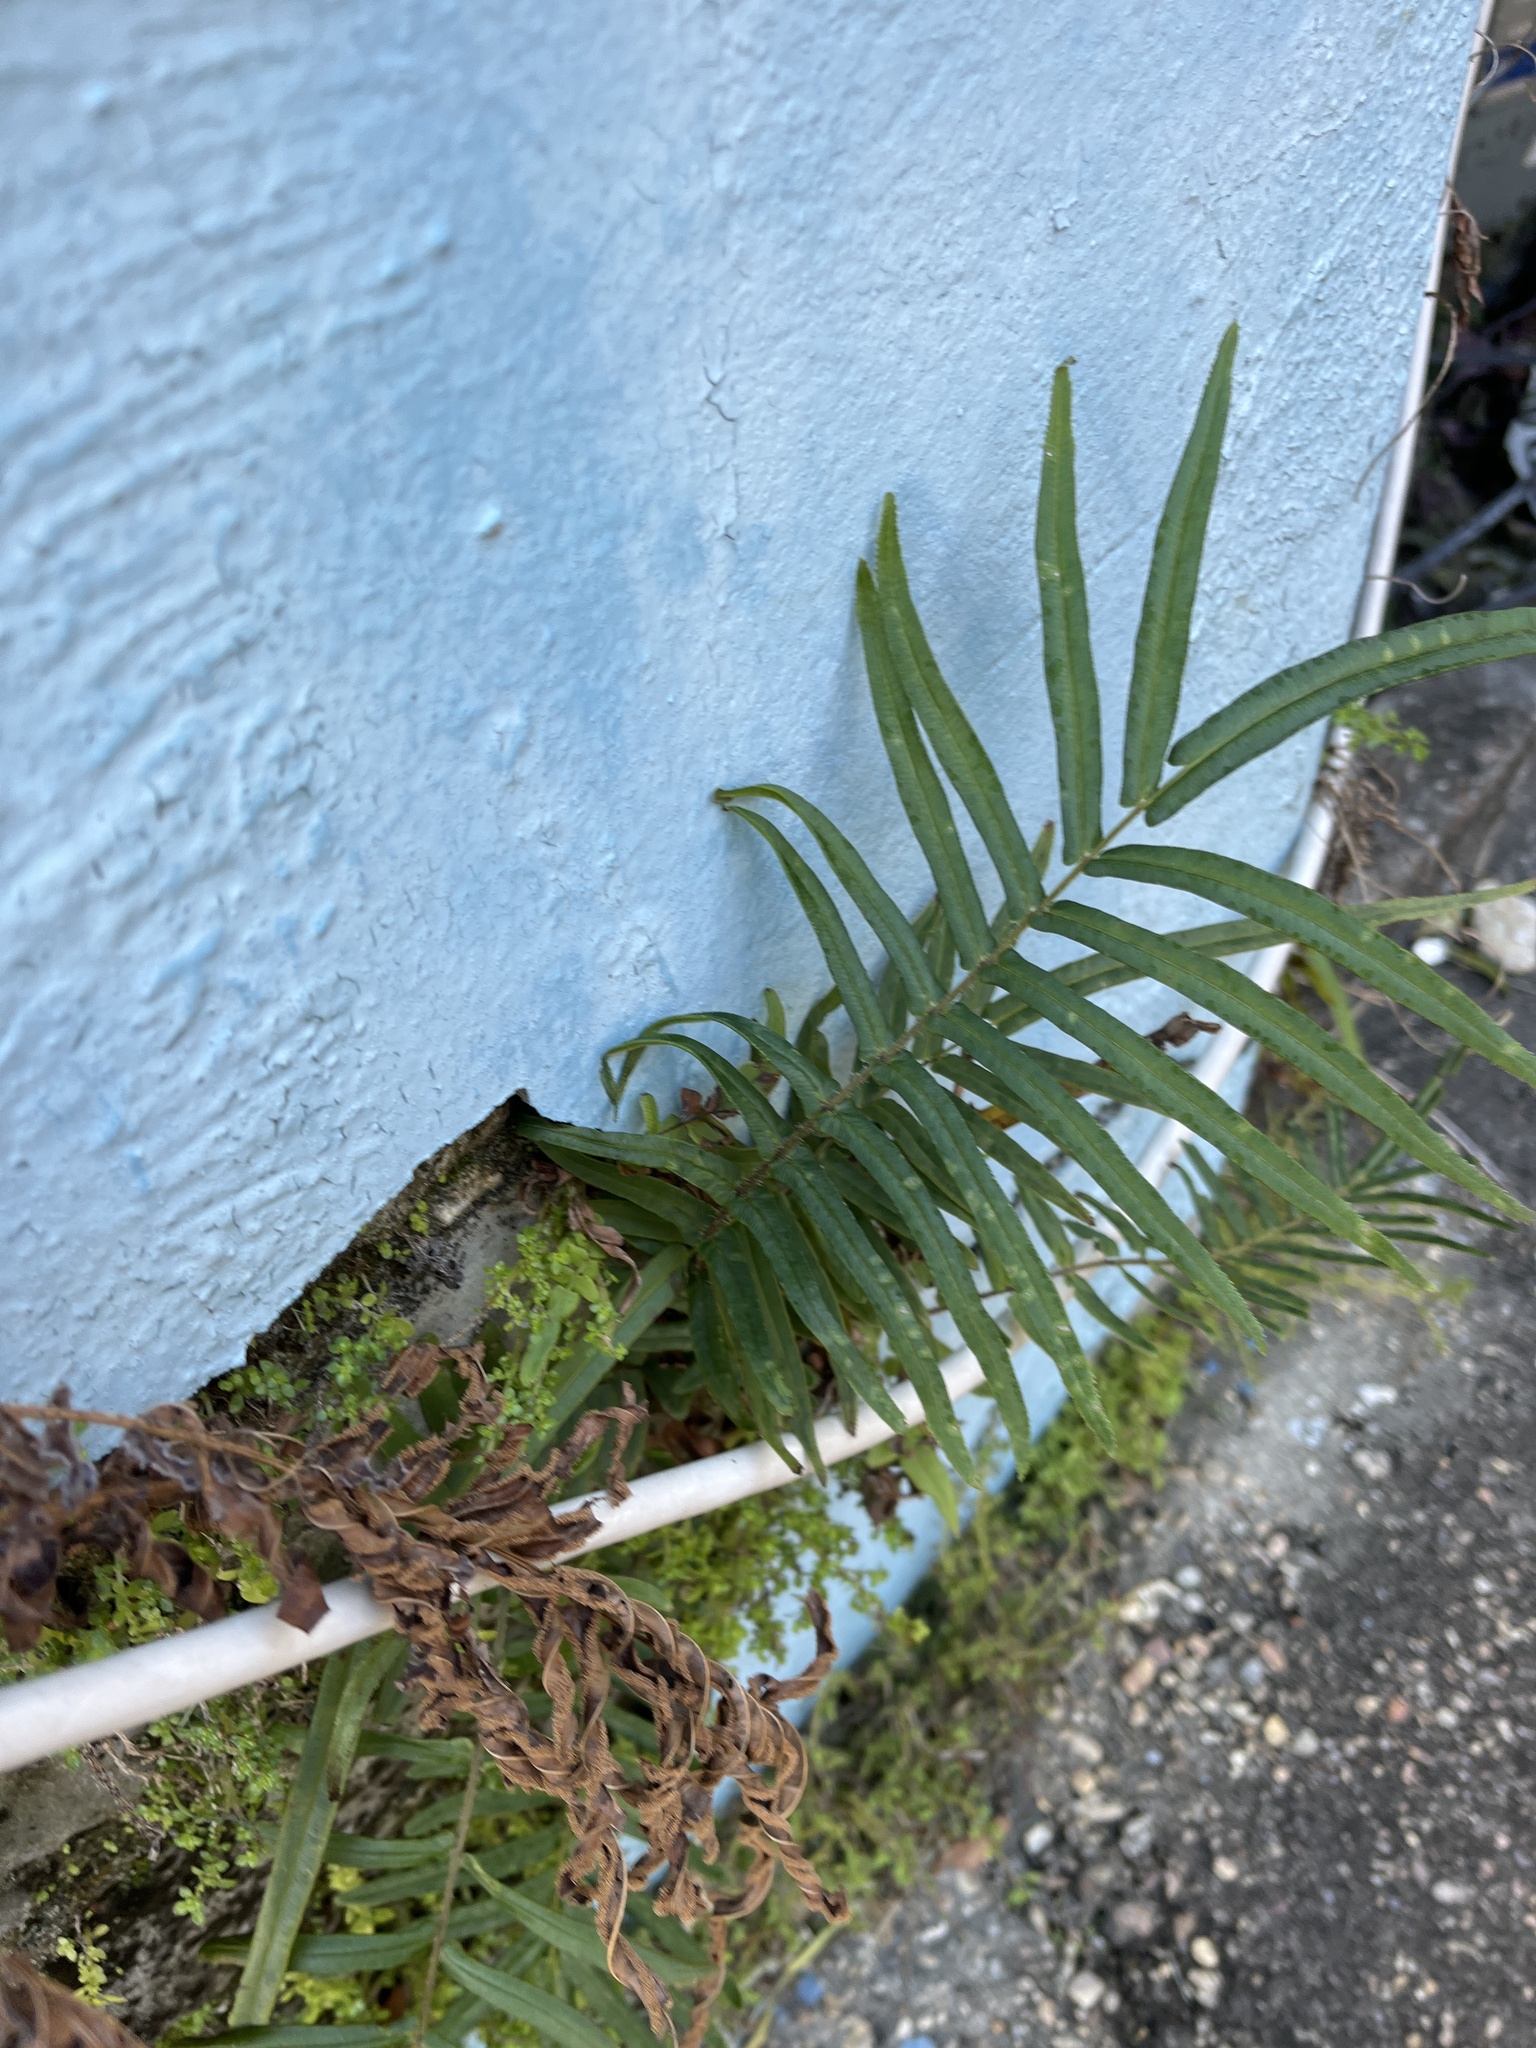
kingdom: Plantae
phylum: Tracheophyta
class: Polypodiopsida
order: Polypodiales
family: Pteridaceae
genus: Pteris
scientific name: Pteris vittata
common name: Ladder brake
